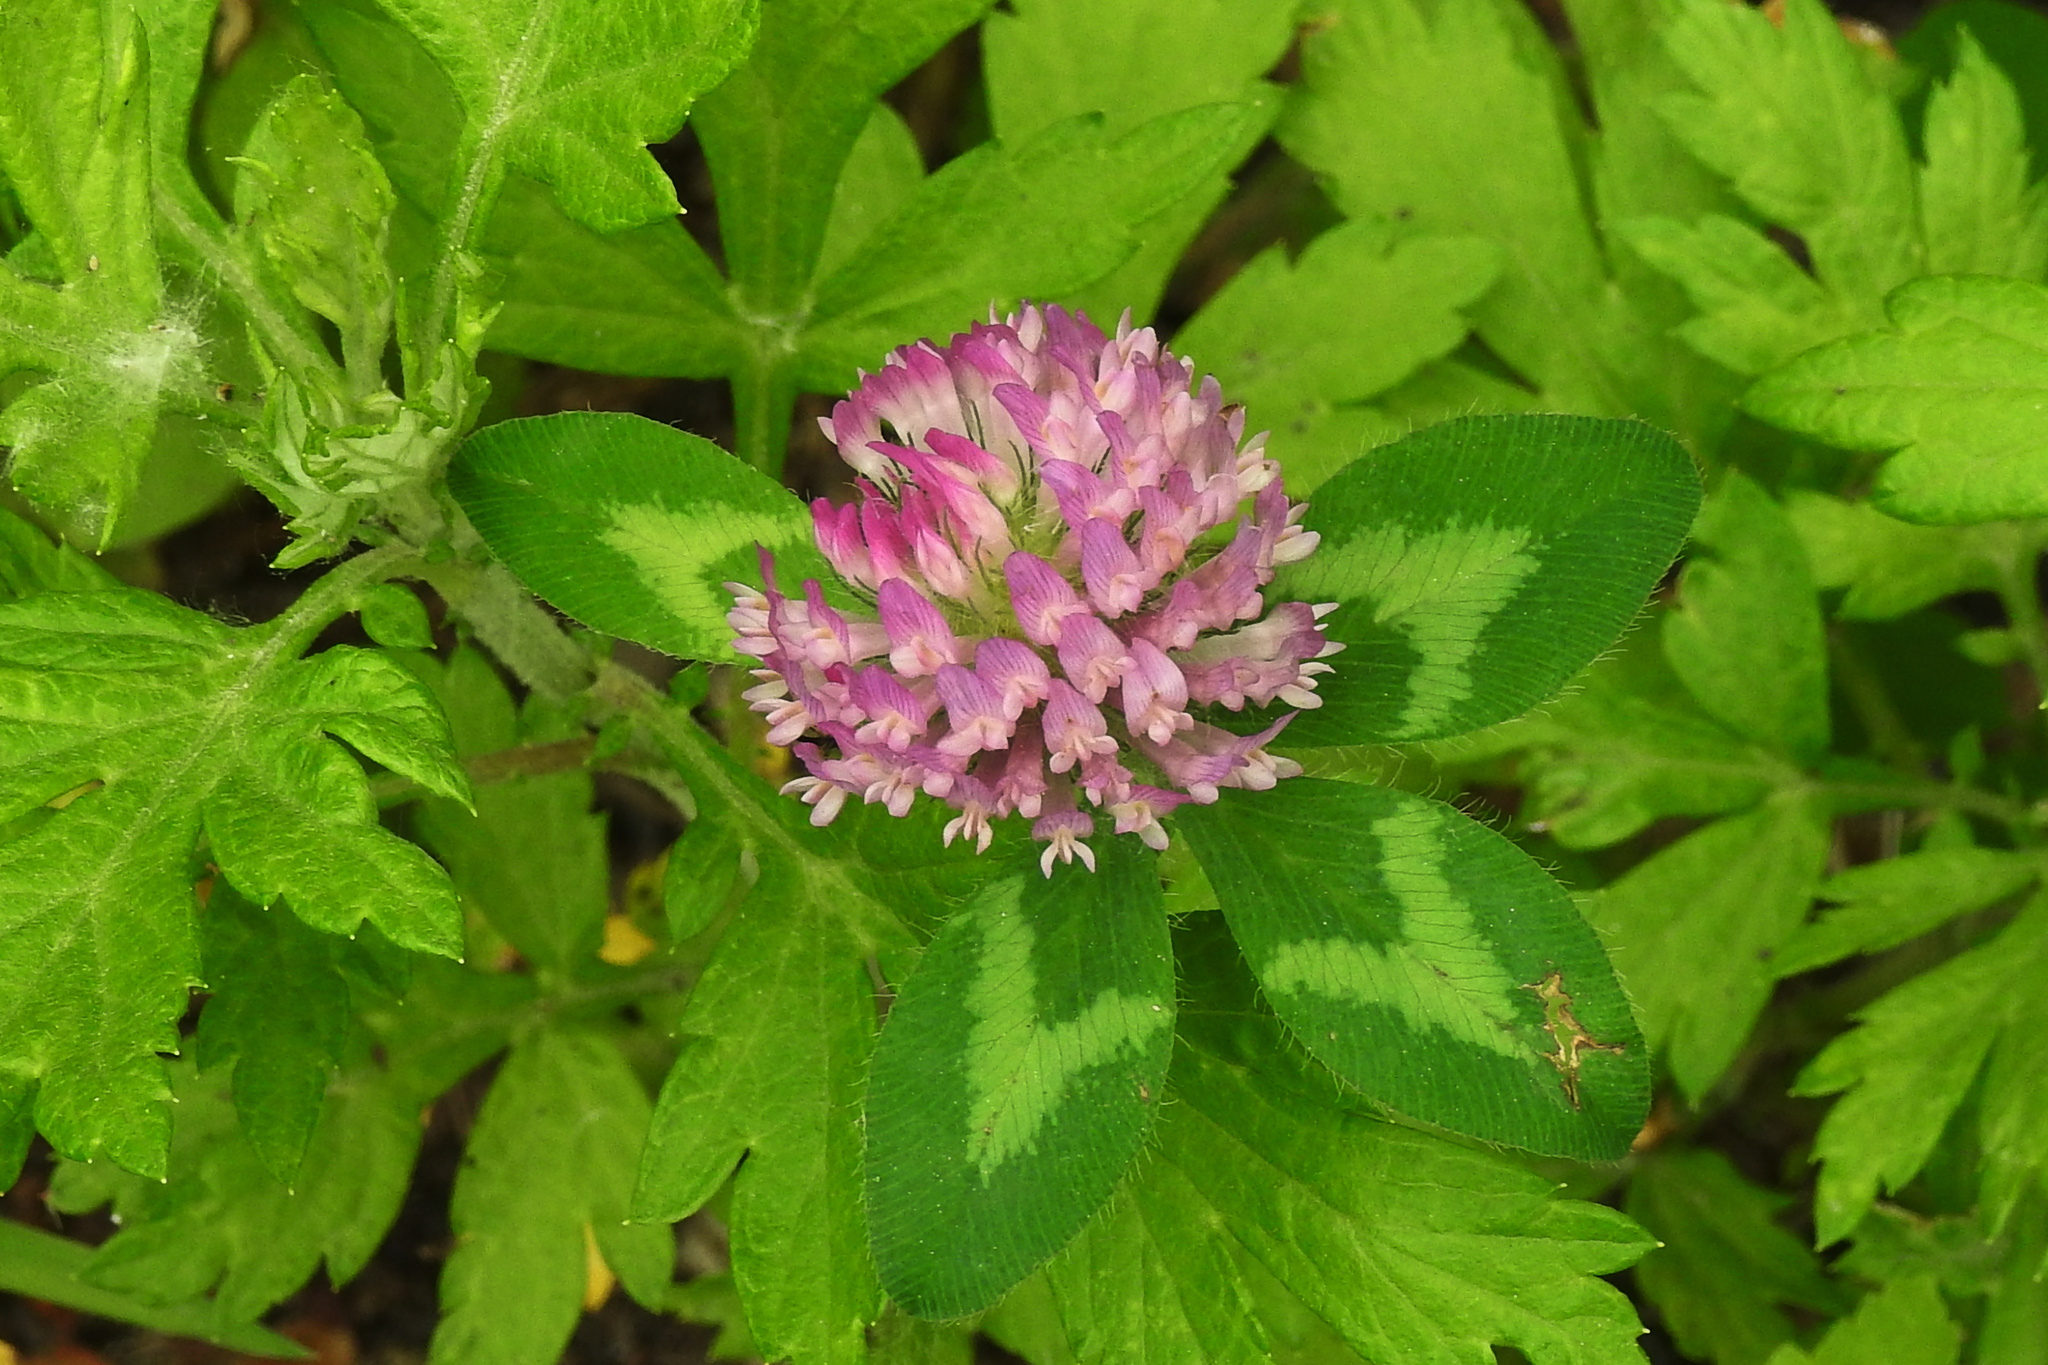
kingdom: Plantae
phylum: Tracheophyta
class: Magnoliopsida
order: Fabales
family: Fabaceae
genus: Trifolium
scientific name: Trifolium pratense
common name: Red clover
